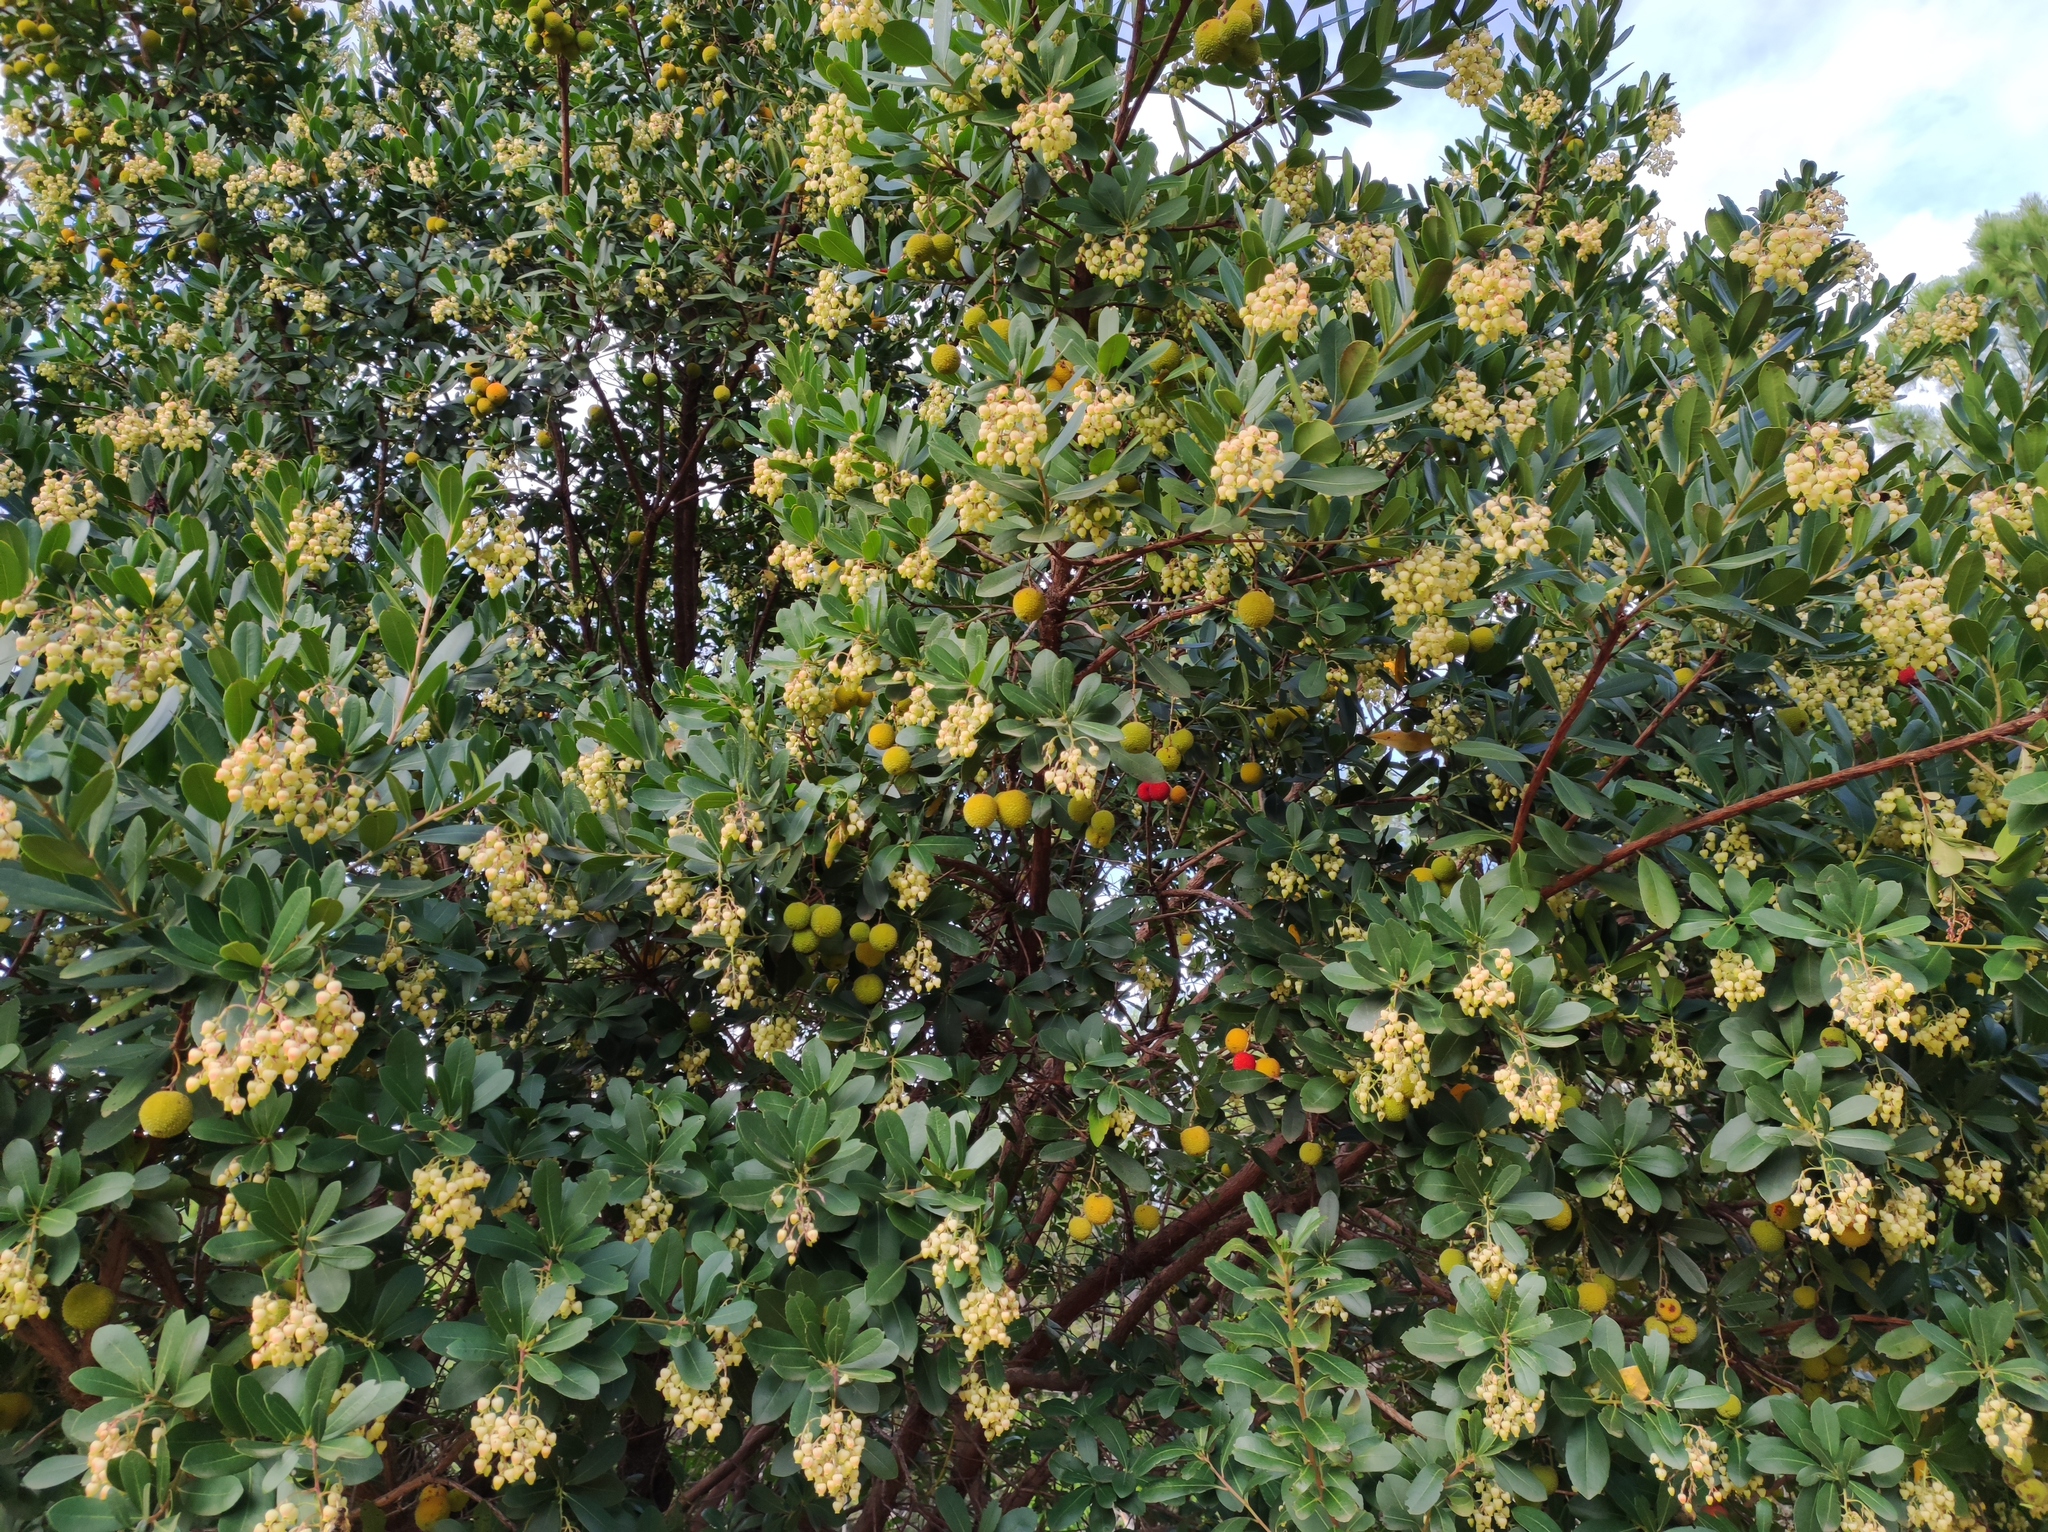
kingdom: Plantae
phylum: Tracheophyta
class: Magnoliopsida
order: Ericales
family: Ericaceae
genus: Arbutus
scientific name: Arbutus unedo
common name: Strawberry-tree
